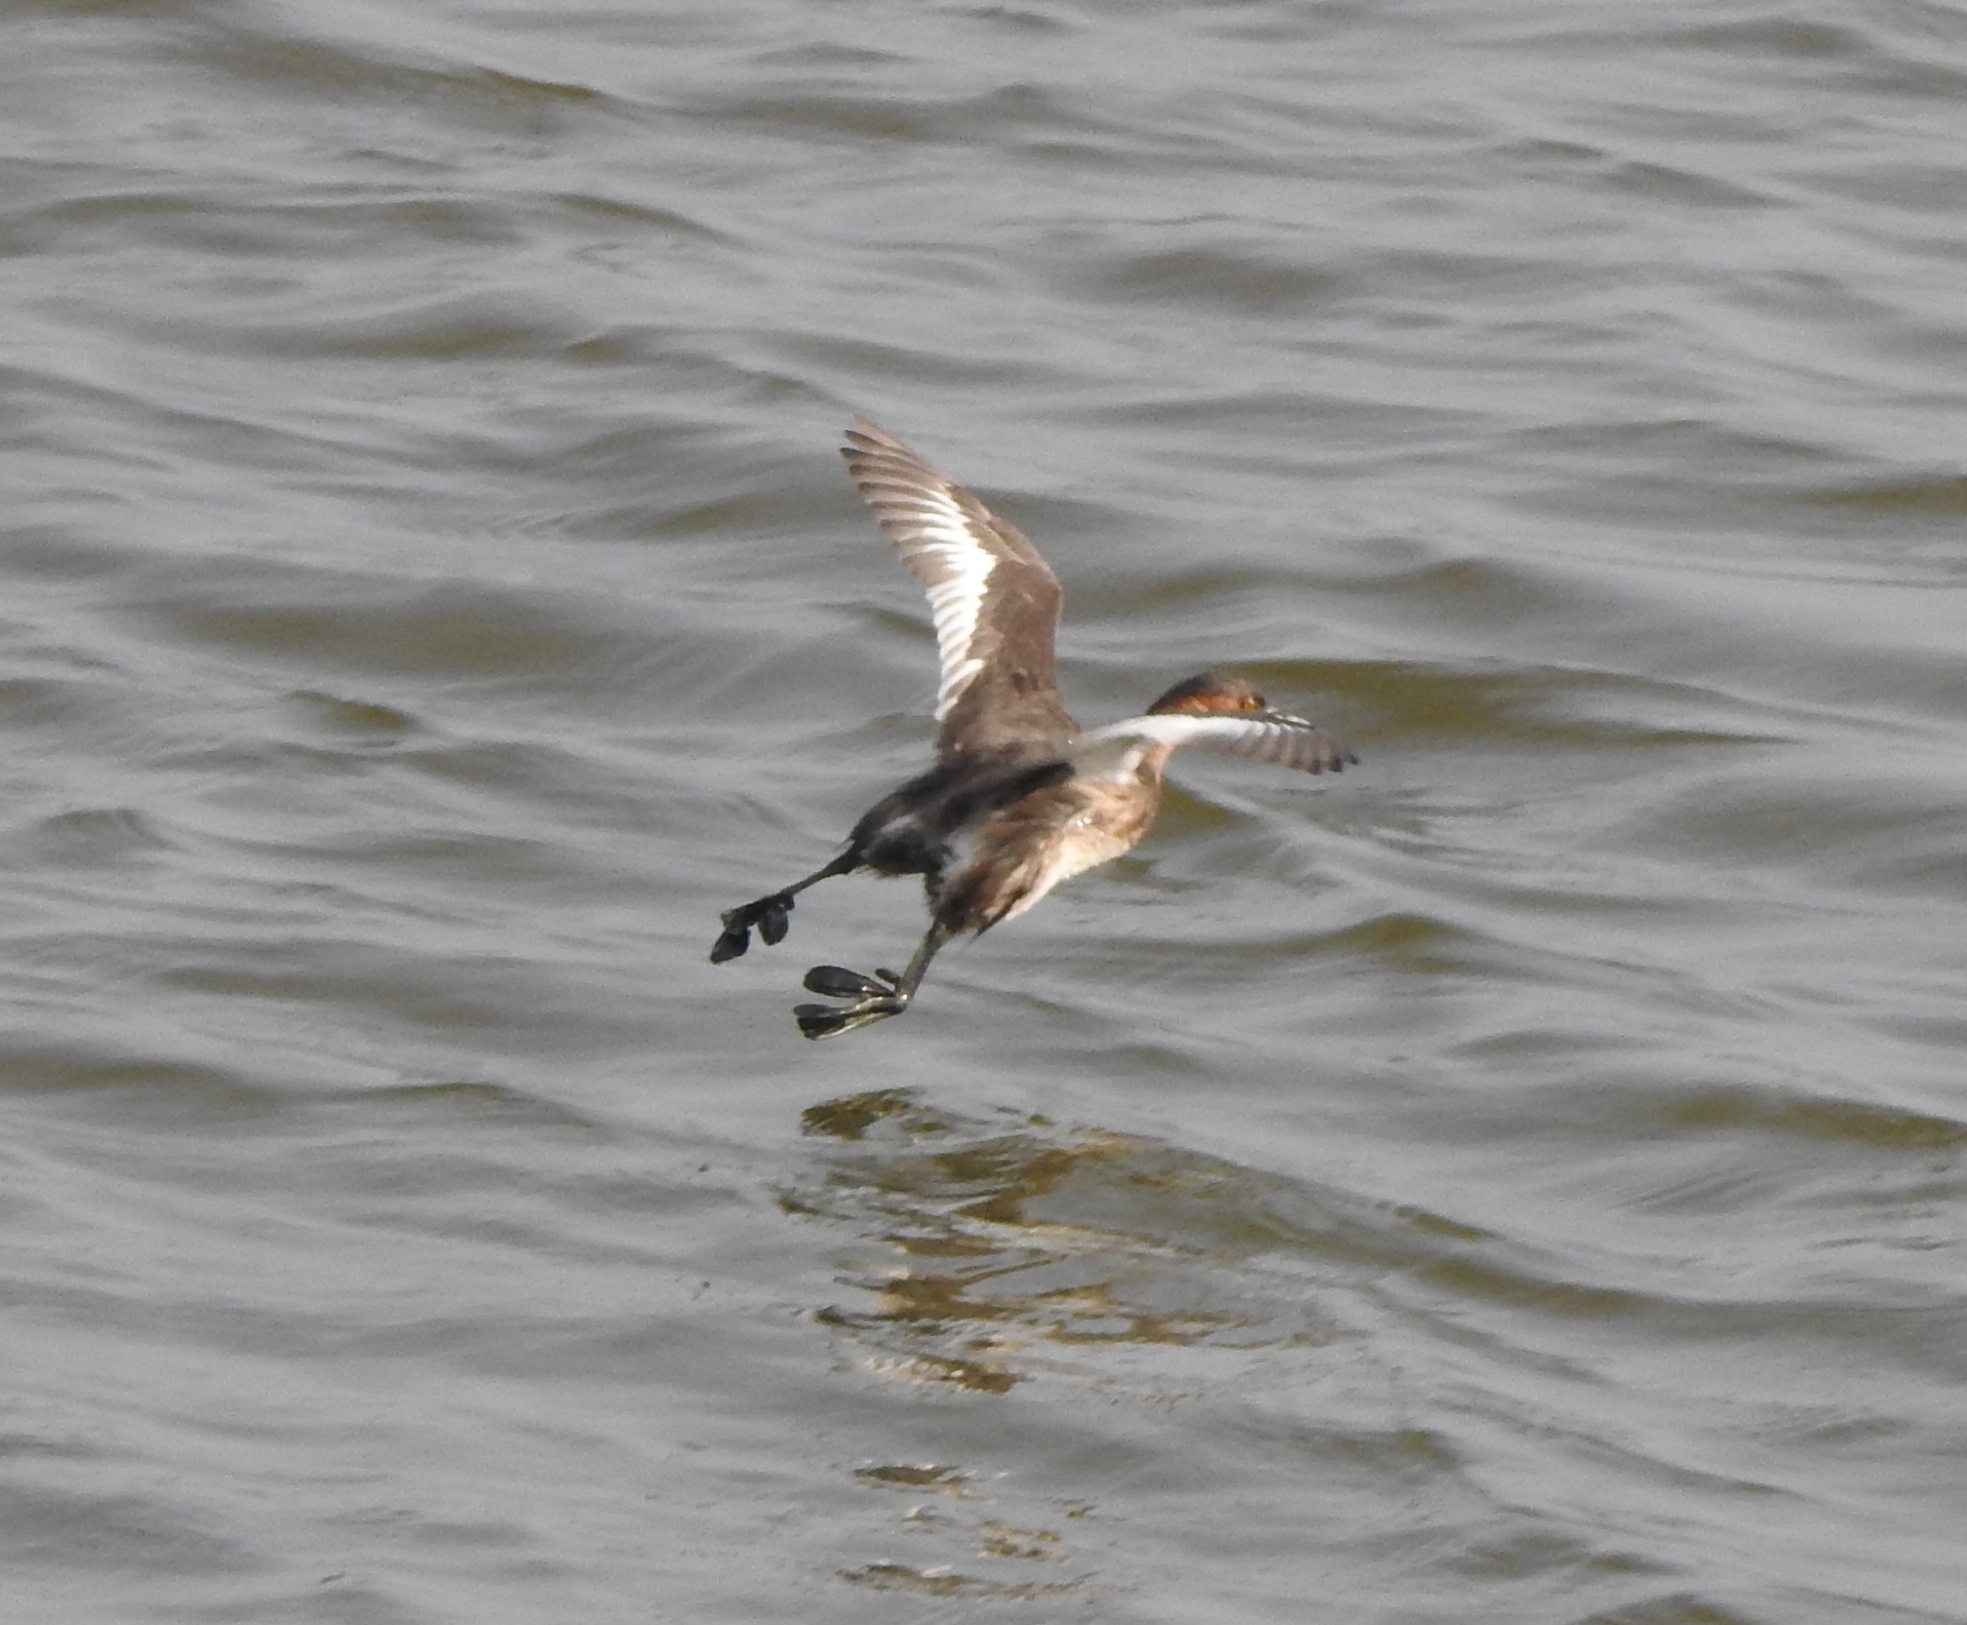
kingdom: Animalia
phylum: Chordata
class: Aves
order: Podicipediformes
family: Podicipedidae
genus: Tachybaptus
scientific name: Tachybaptus ruficollis
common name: Little grebe
